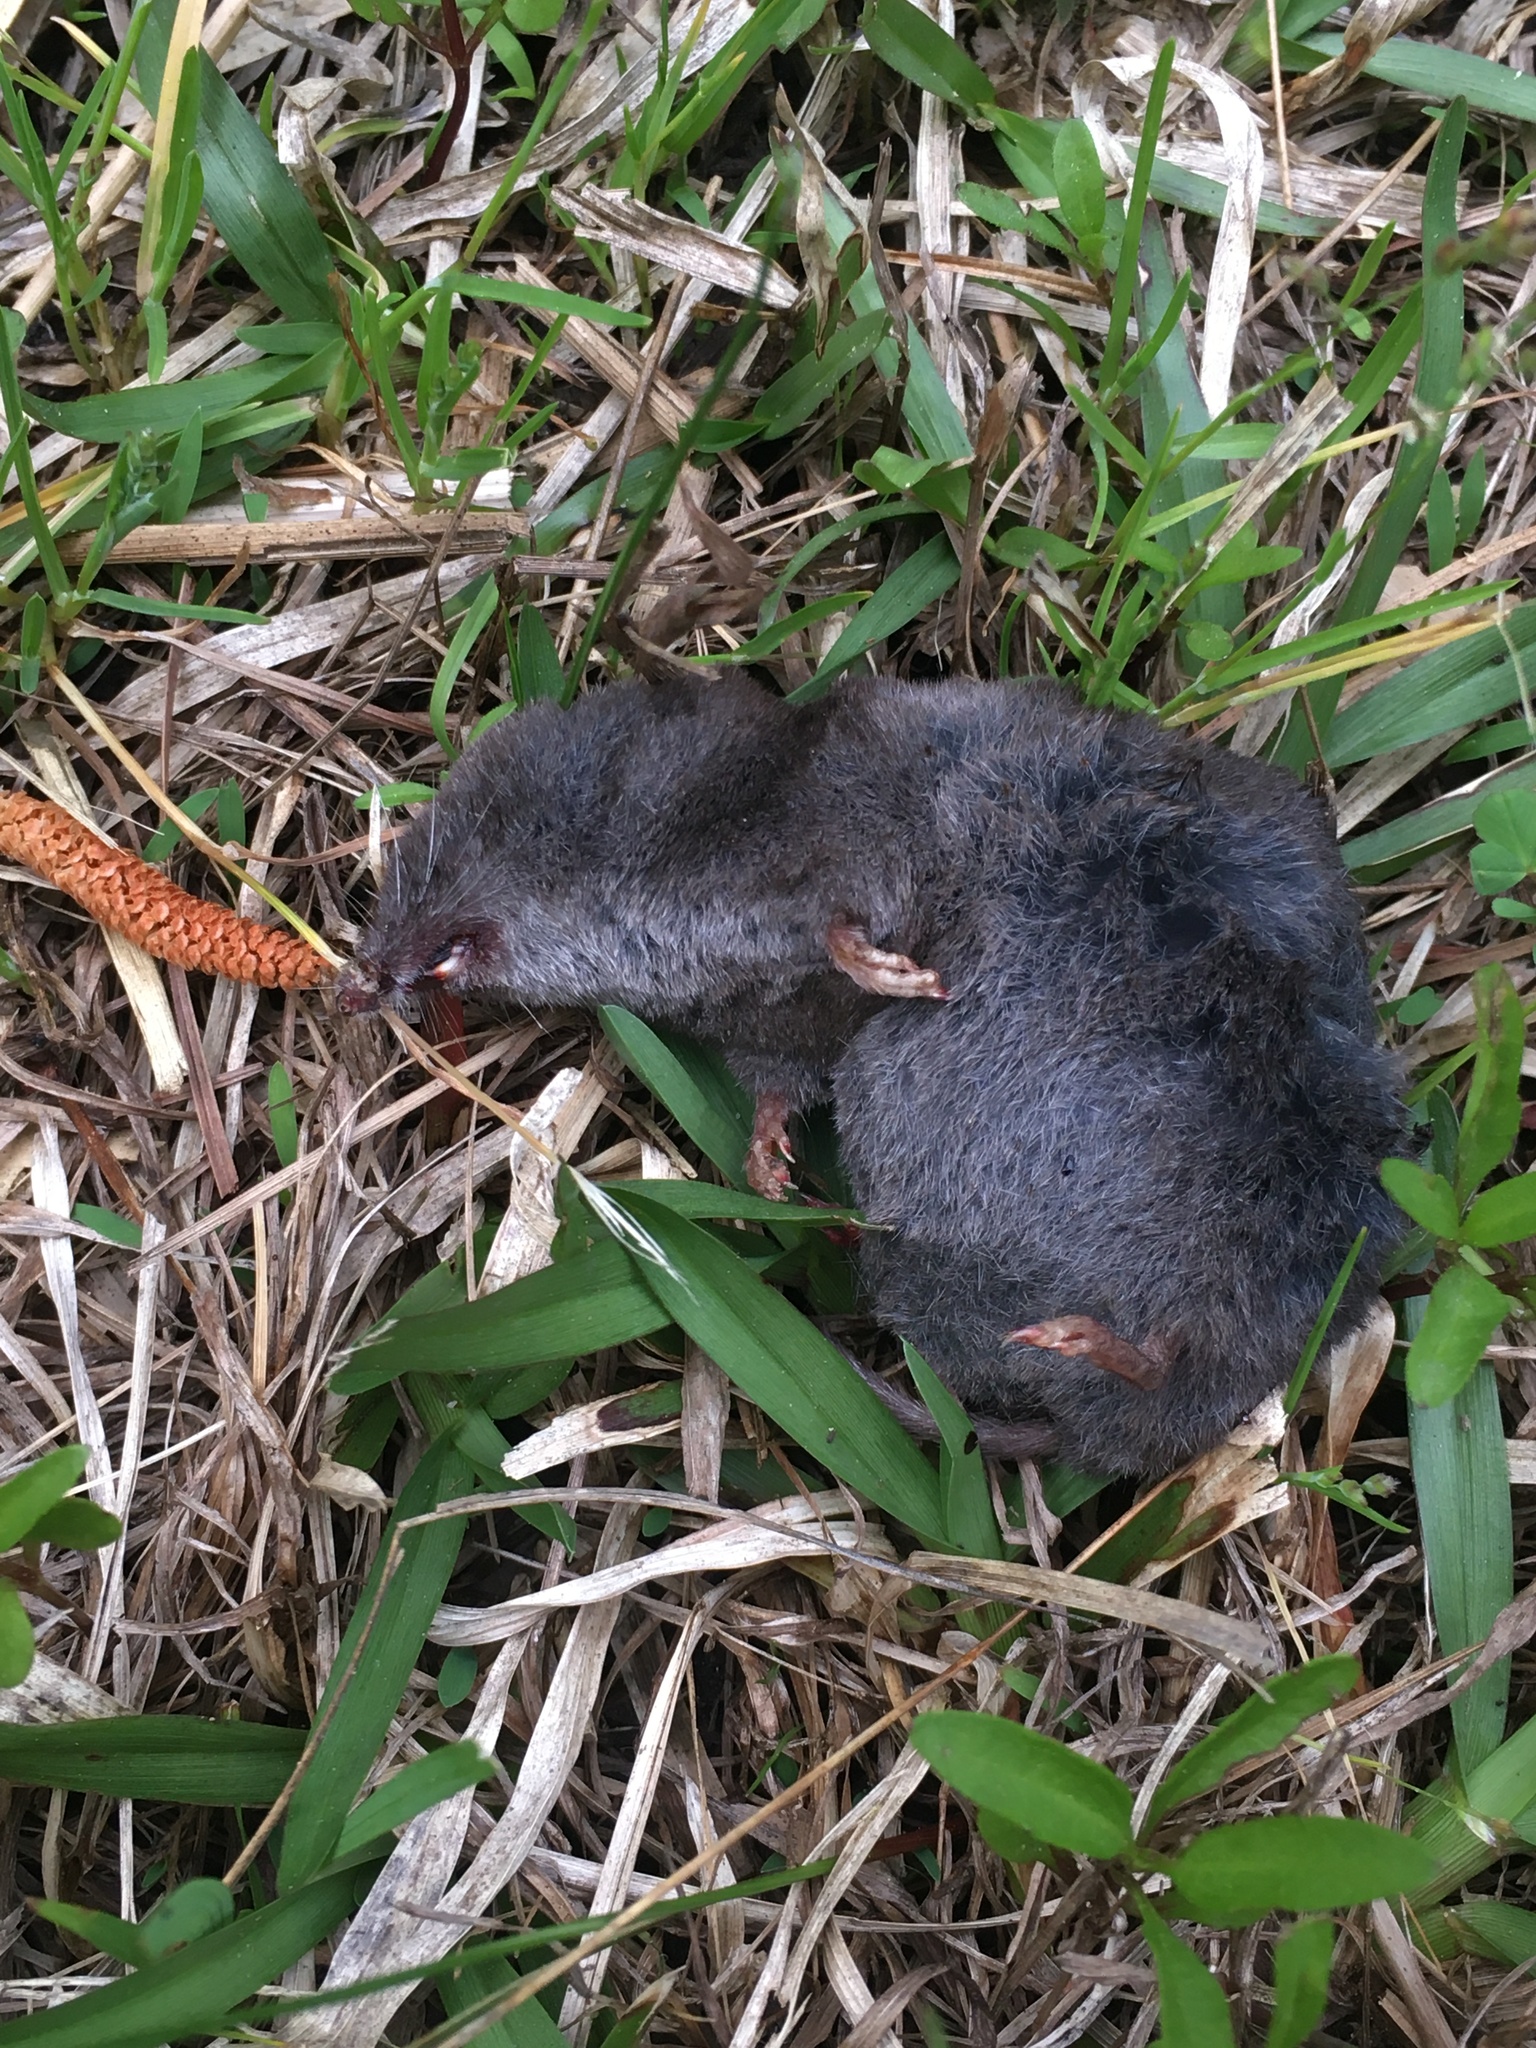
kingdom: Animalia
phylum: Chordata
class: Mammalia
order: Soricomorpha
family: Soricidae
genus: Blarina
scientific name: Blarina brevicauda
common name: Northern short-tailed shrew
